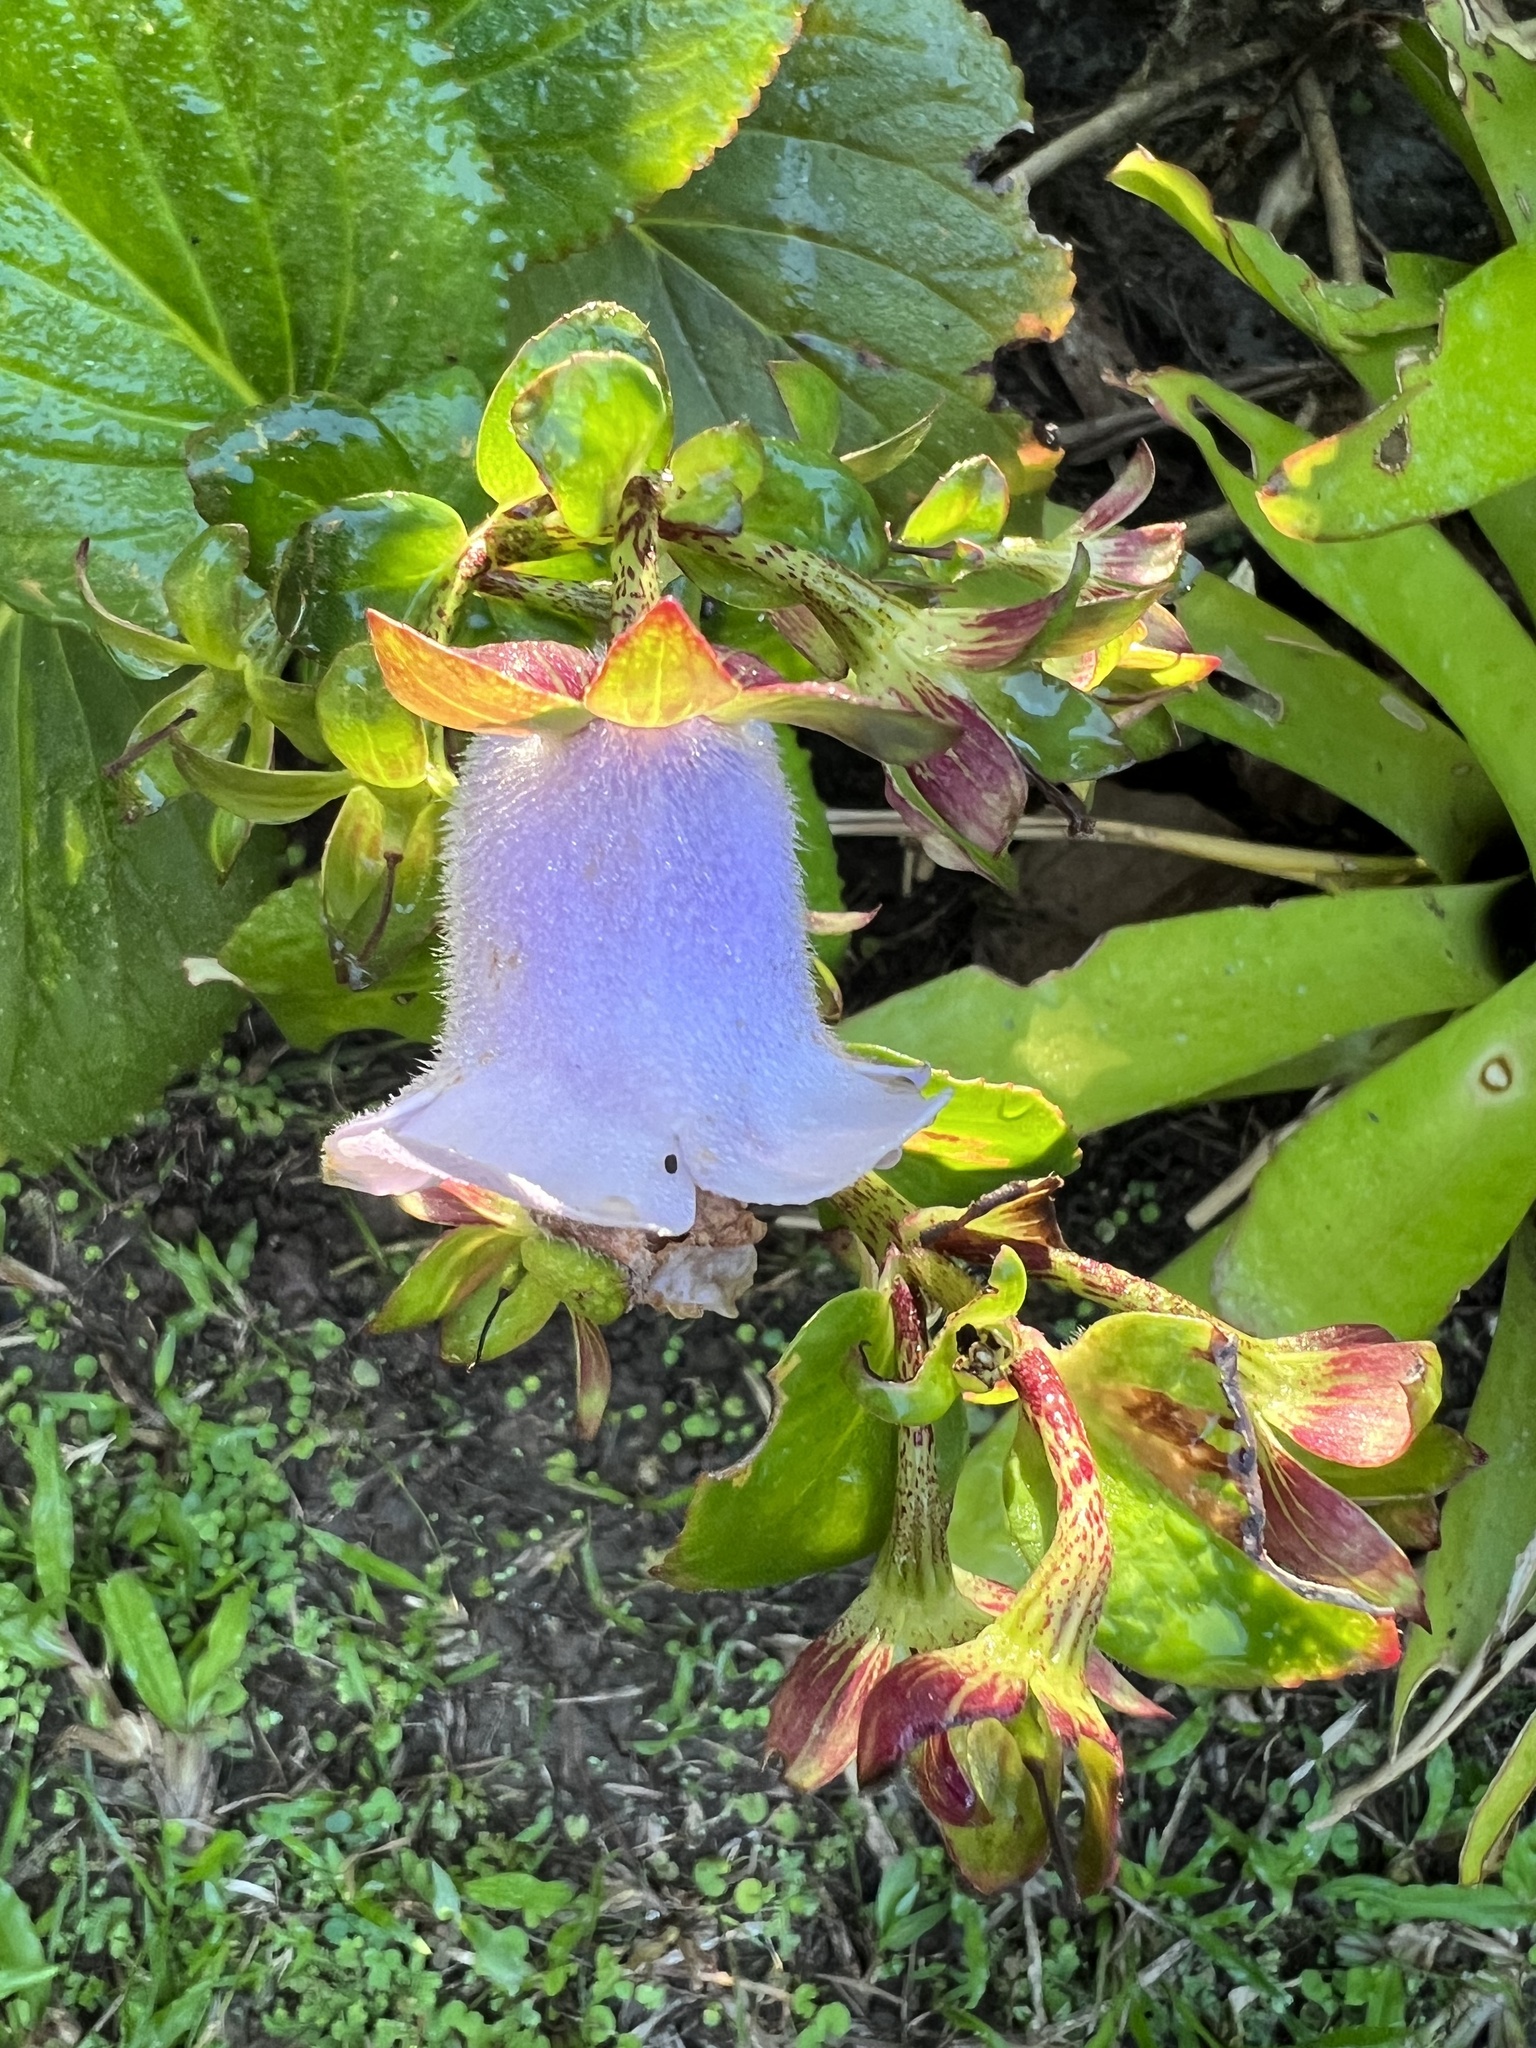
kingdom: Plantae
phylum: Tracheophyta
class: Magnoliopsida
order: Lamiales
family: Gesneriaceae
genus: Gloxinia
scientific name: Gloxinia perennis
